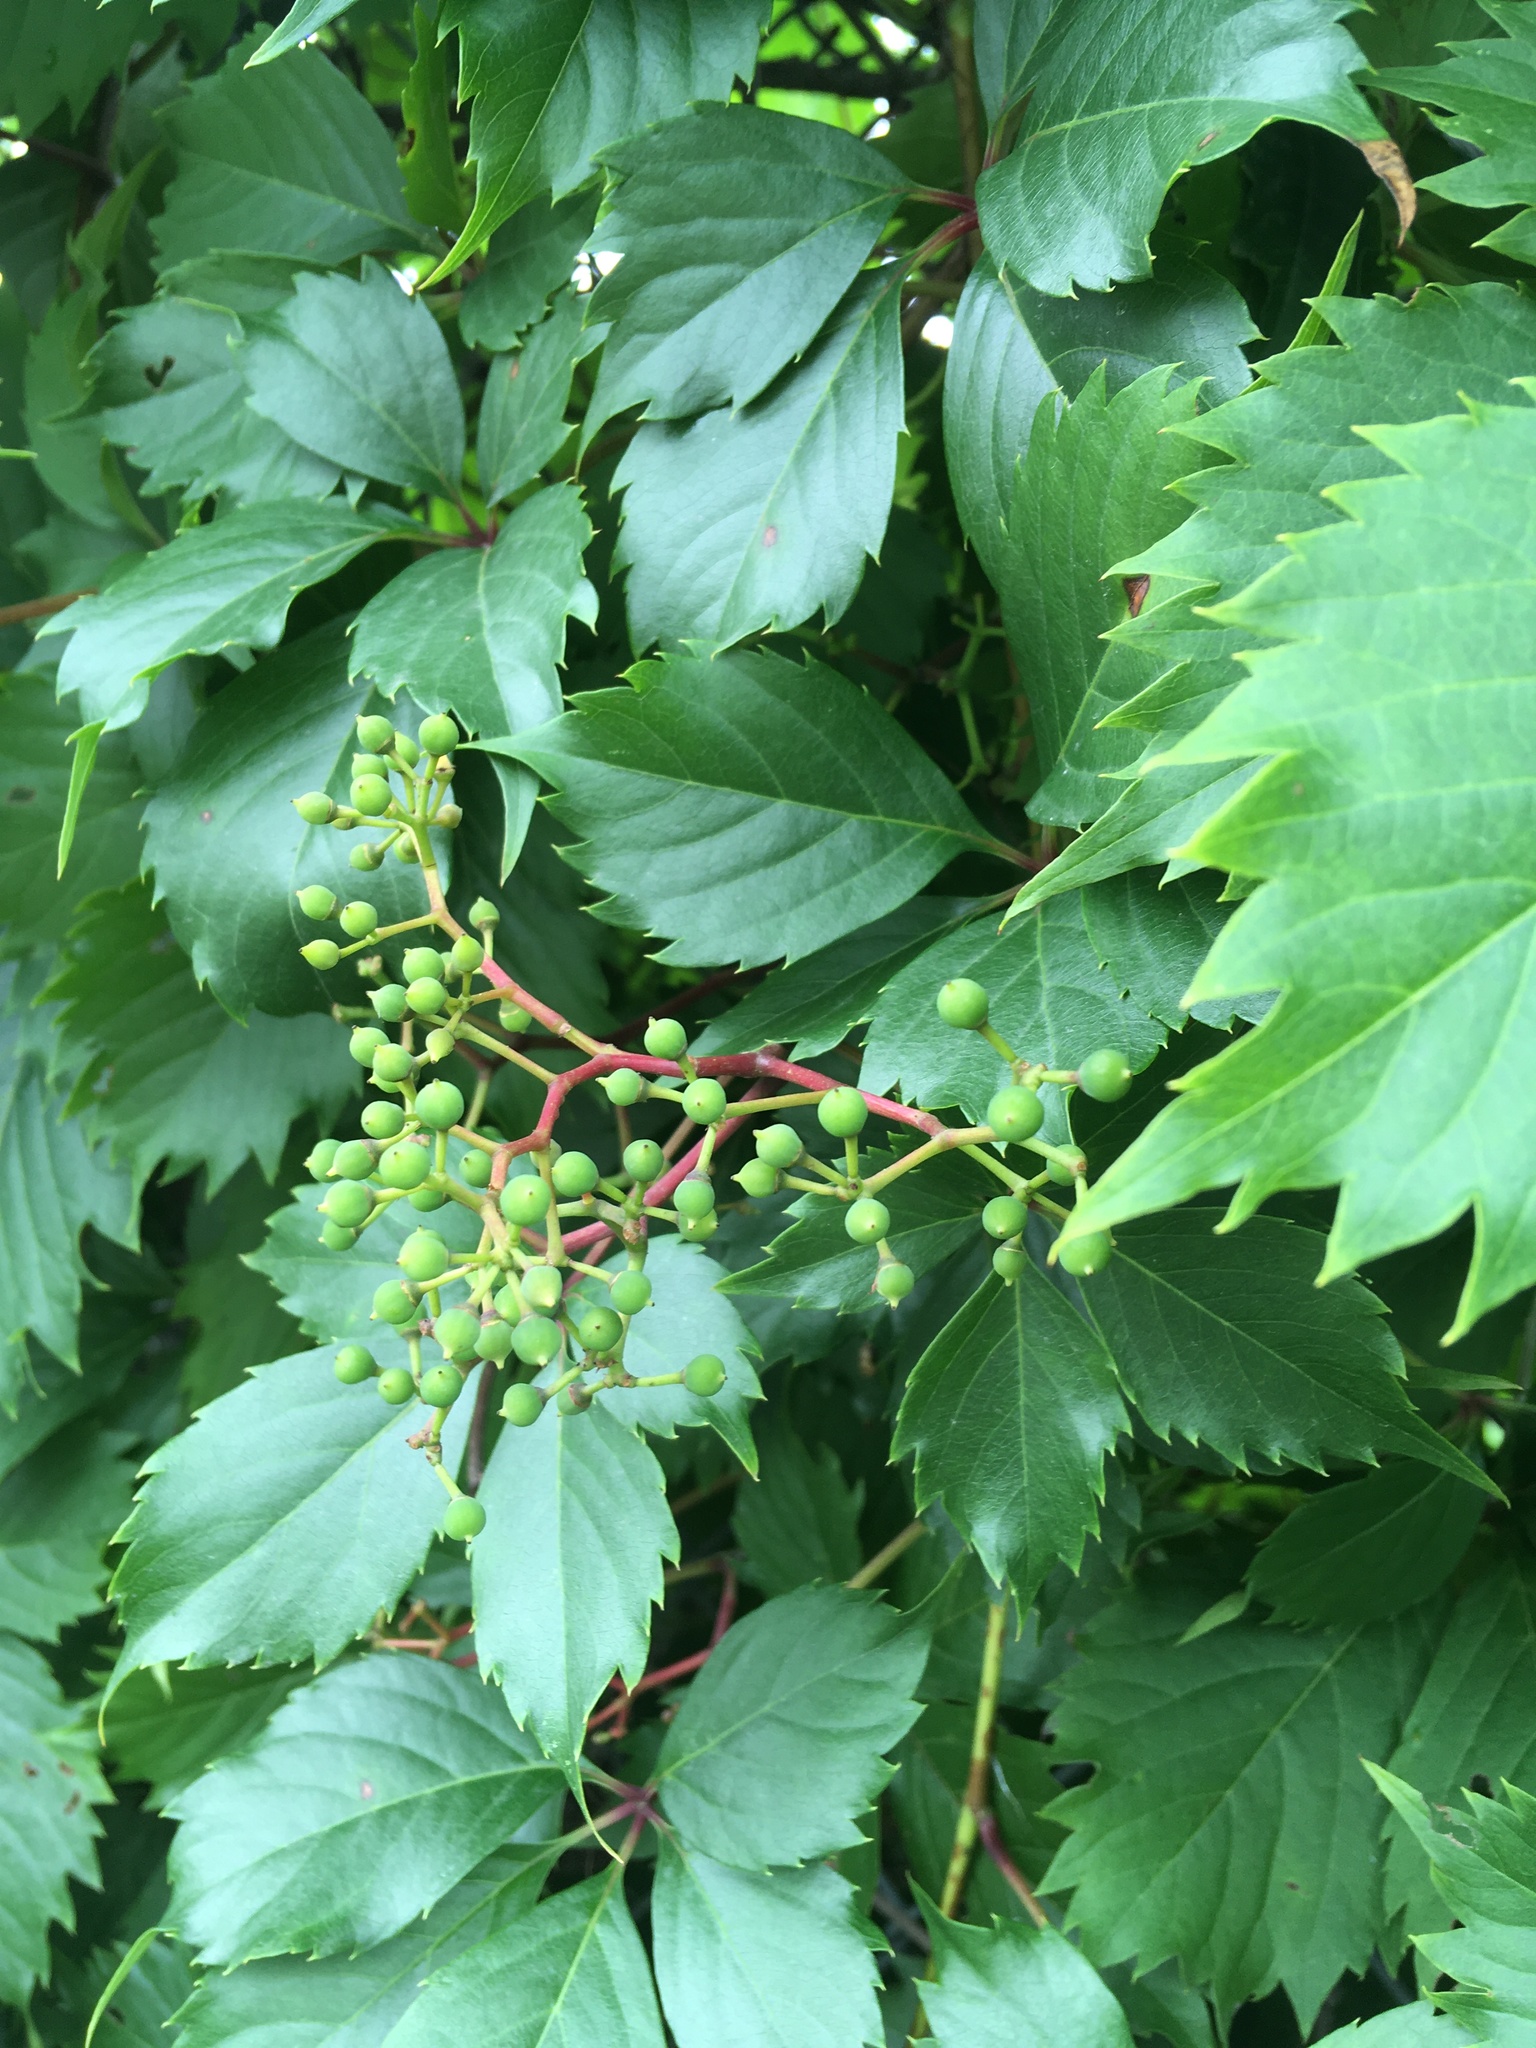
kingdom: Plantae
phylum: Tracheophyta
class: Magnoliopsida
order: Vitales
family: Vitaceae
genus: Parthenocissus
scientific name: Parthenocissus inserta
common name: False virginia-creeper
